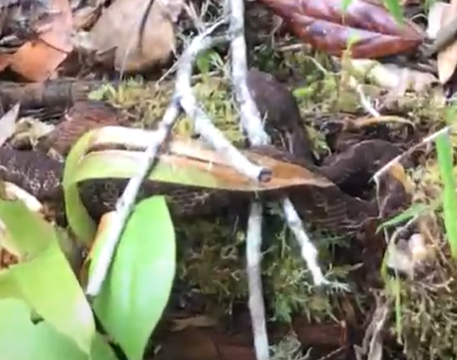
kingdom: Animalia
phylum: Chordata
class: Squamata
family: Viperidae
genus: Cerrophidion
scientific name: Cerrophidion wilsoni
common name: Honduras montane pitviper
